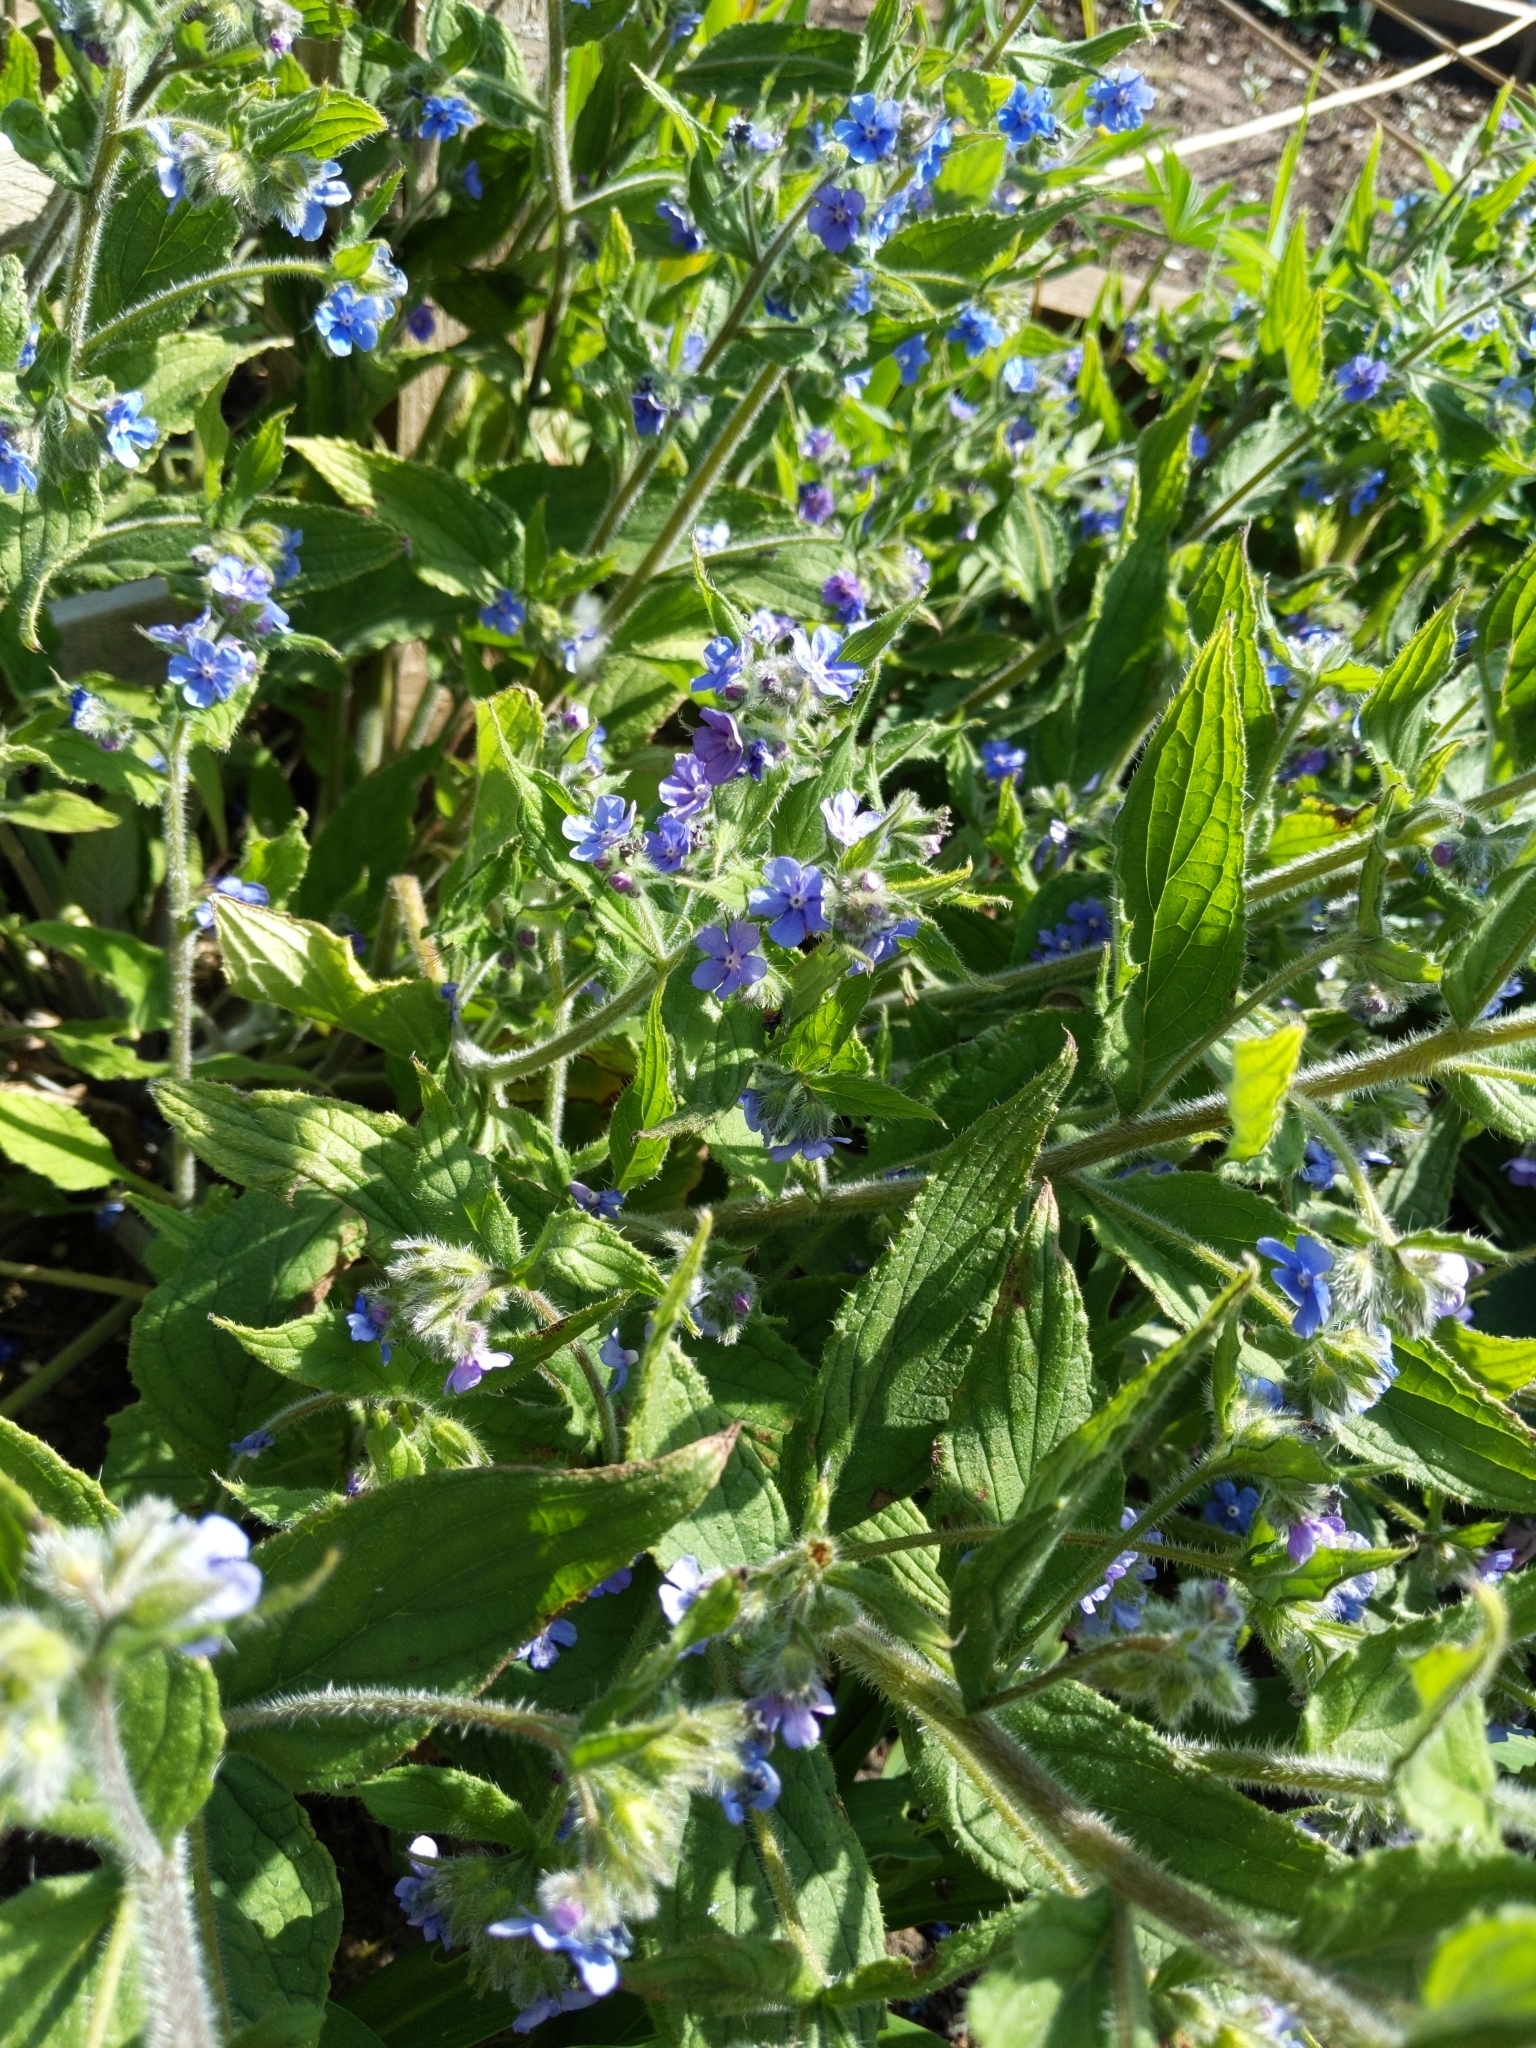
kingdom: Plantae
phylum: Tracheophyta
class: Magnoliopsida
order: Boraginales
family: Boraginaceae
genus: Pentaglottis
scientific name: Pentaglottis sempervirens
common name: Green alkanet
